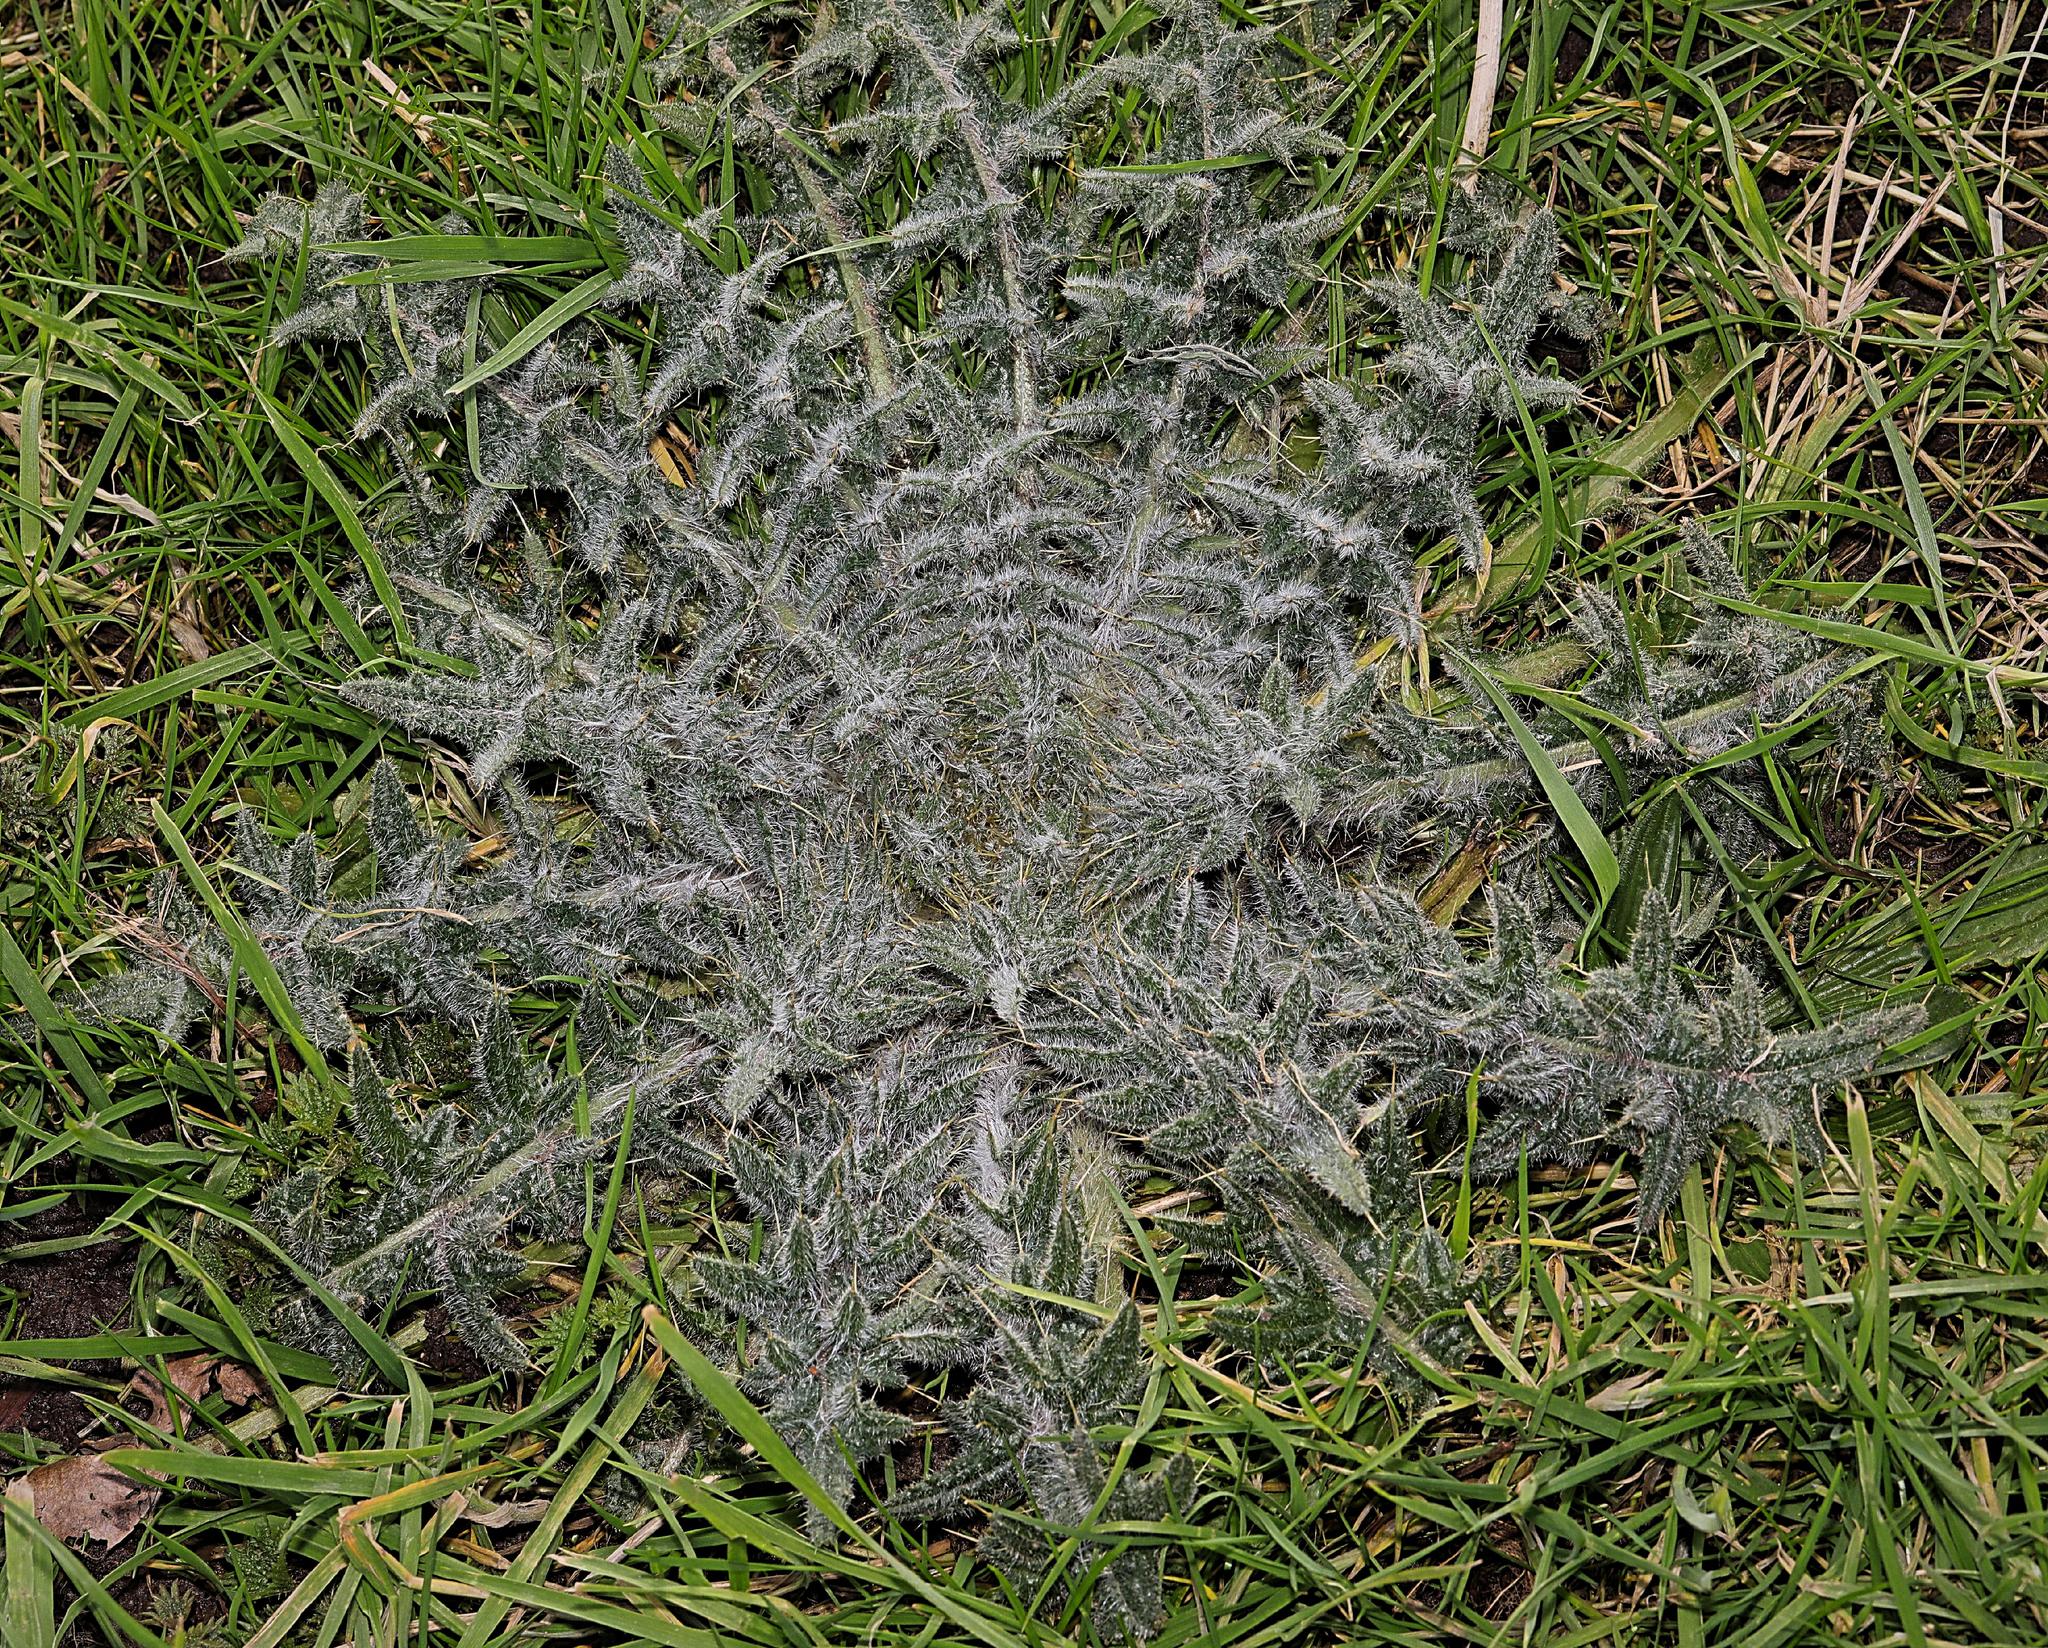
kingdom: Plantae
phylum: Tracheophyta
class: Magnoliopsida
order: Asterales
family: Asteraceae
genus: Cirsium
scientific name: Cirsium vulgare
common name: Bull thistle
